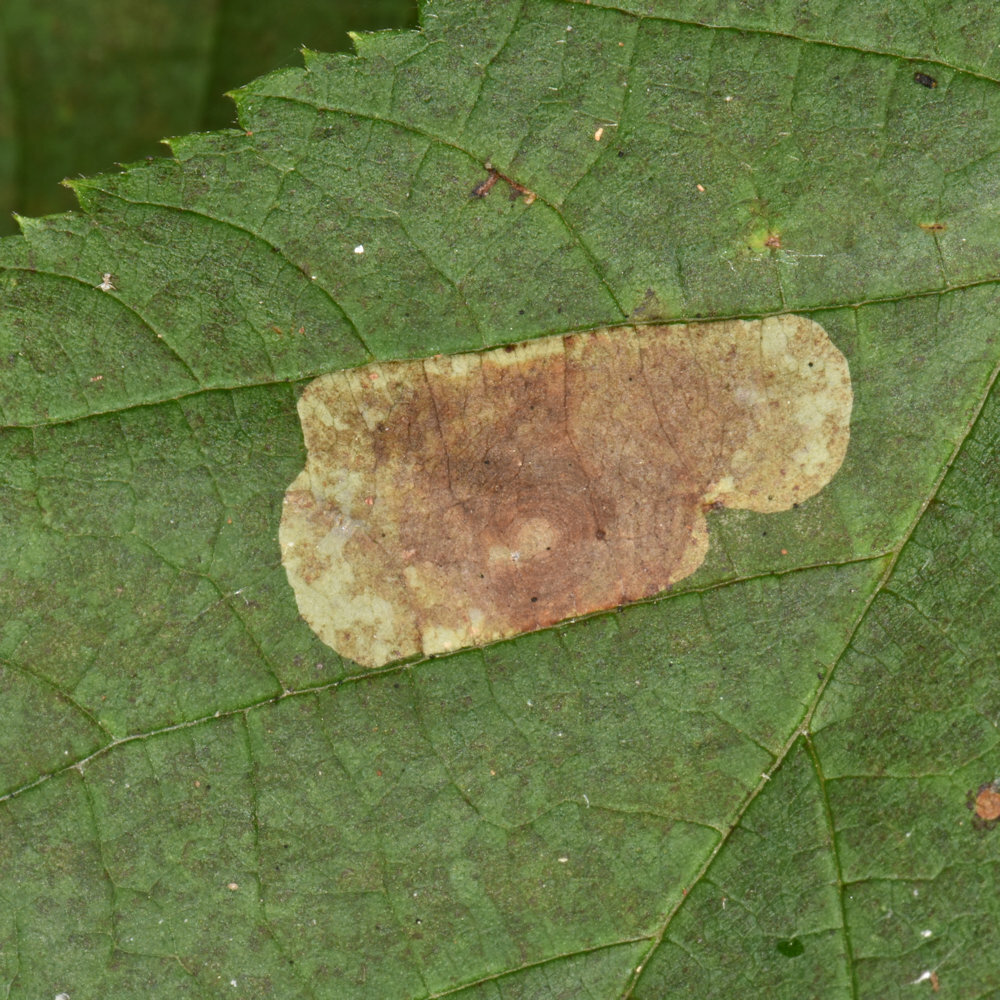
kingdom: Animalia
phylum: Arthropoda
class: Insecta
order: Lepidoptera
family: Gracillariidae
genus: Cameraria
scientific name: Cameraria corylisella
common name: Hazel blotchminer
